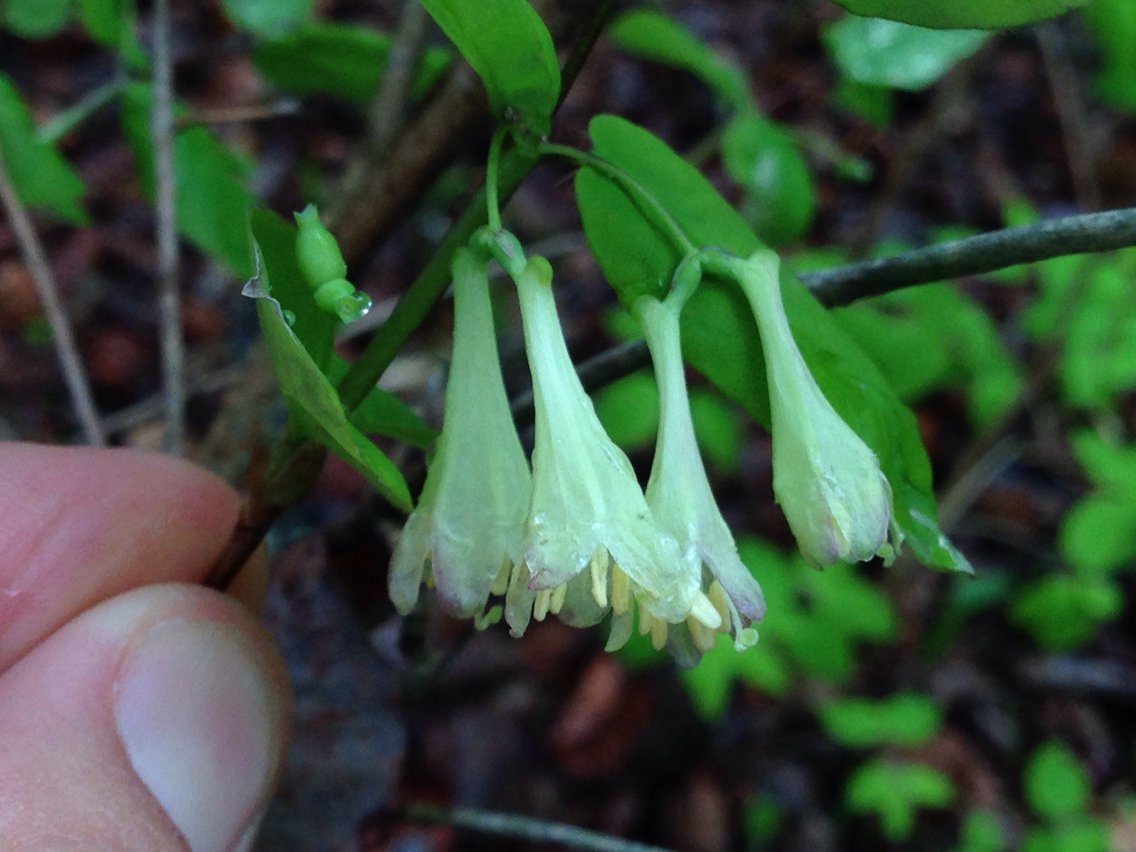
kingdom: Plantae
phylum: Tracheophyta
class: Magnoliopsida
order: Dipsacales
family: Caprifoliaceae
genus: Lonicera
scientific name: Lonicera canadensis
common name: American fly-honeysuckle
